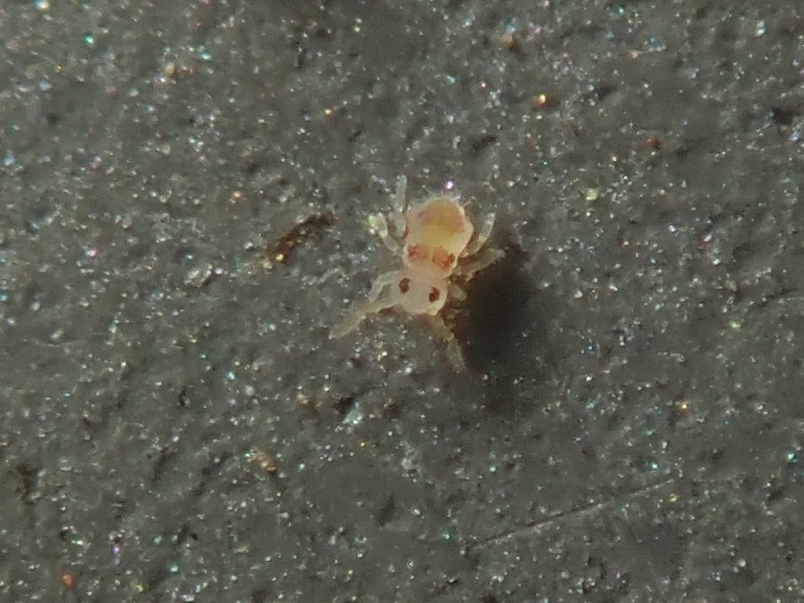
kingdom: Animalia
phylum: Arthropoda
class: Collembola
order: Symphypleona
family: Bourletiellidae
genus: Deuterosminthurus
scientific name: Deuterosminthurus bicinctus
